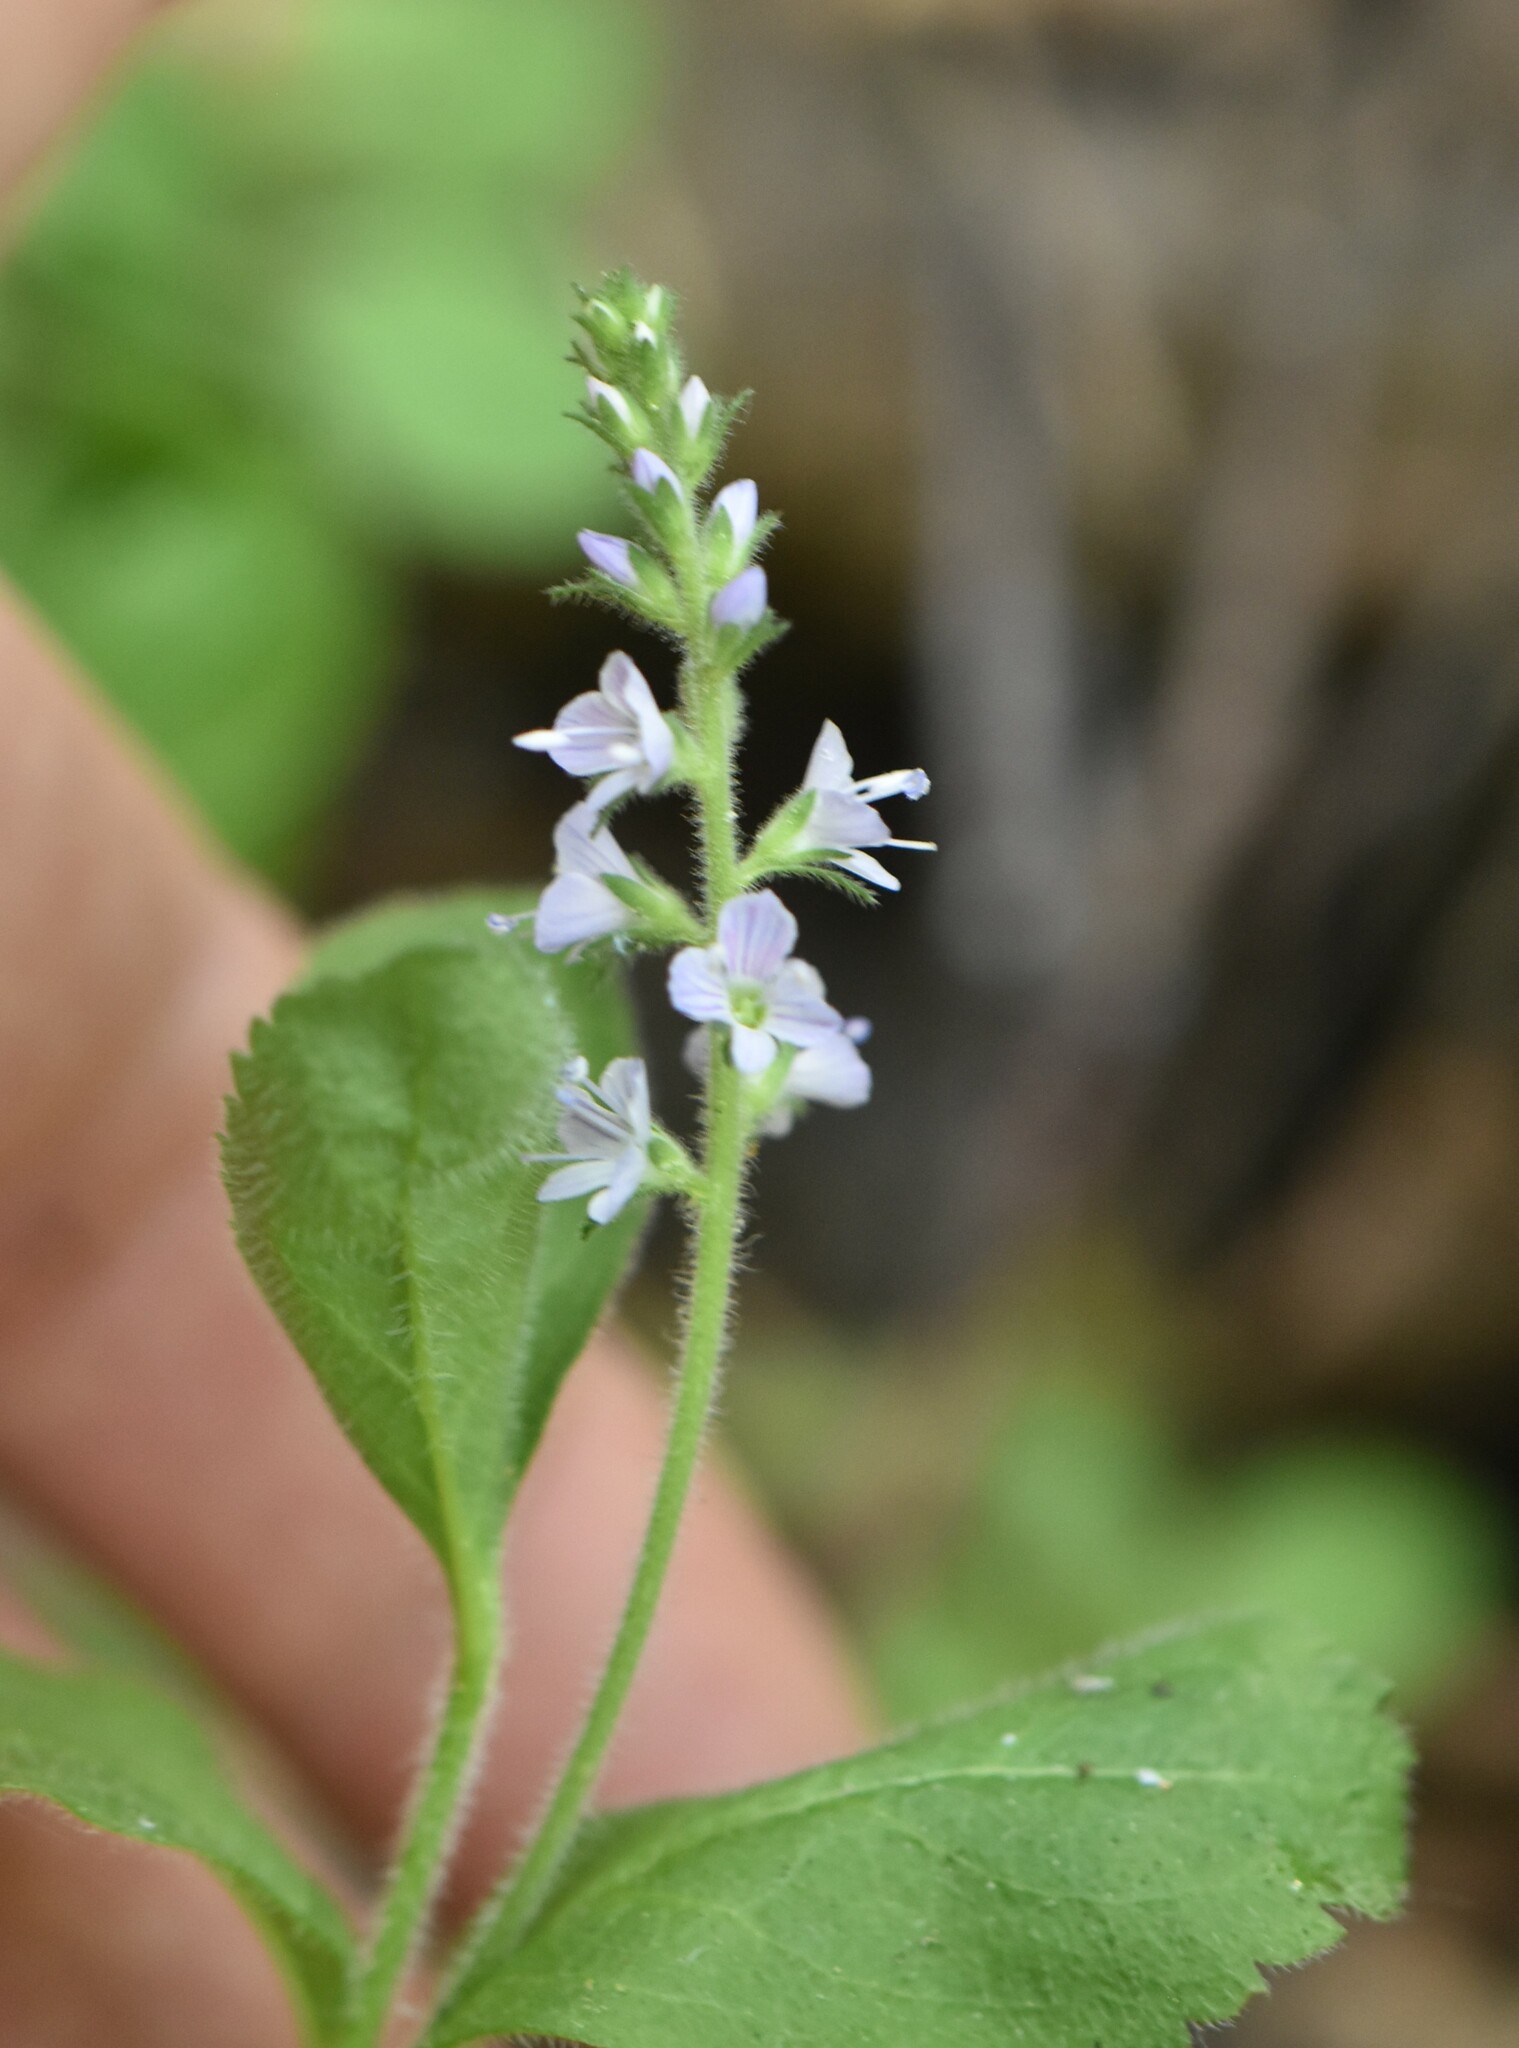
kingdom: Plantae
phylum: Tracheophyta
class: Magnoliopsida
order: Lamiales
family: Plantaginaceae
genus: Veronica
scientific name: Veronica officinalis
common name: Common speedwell
